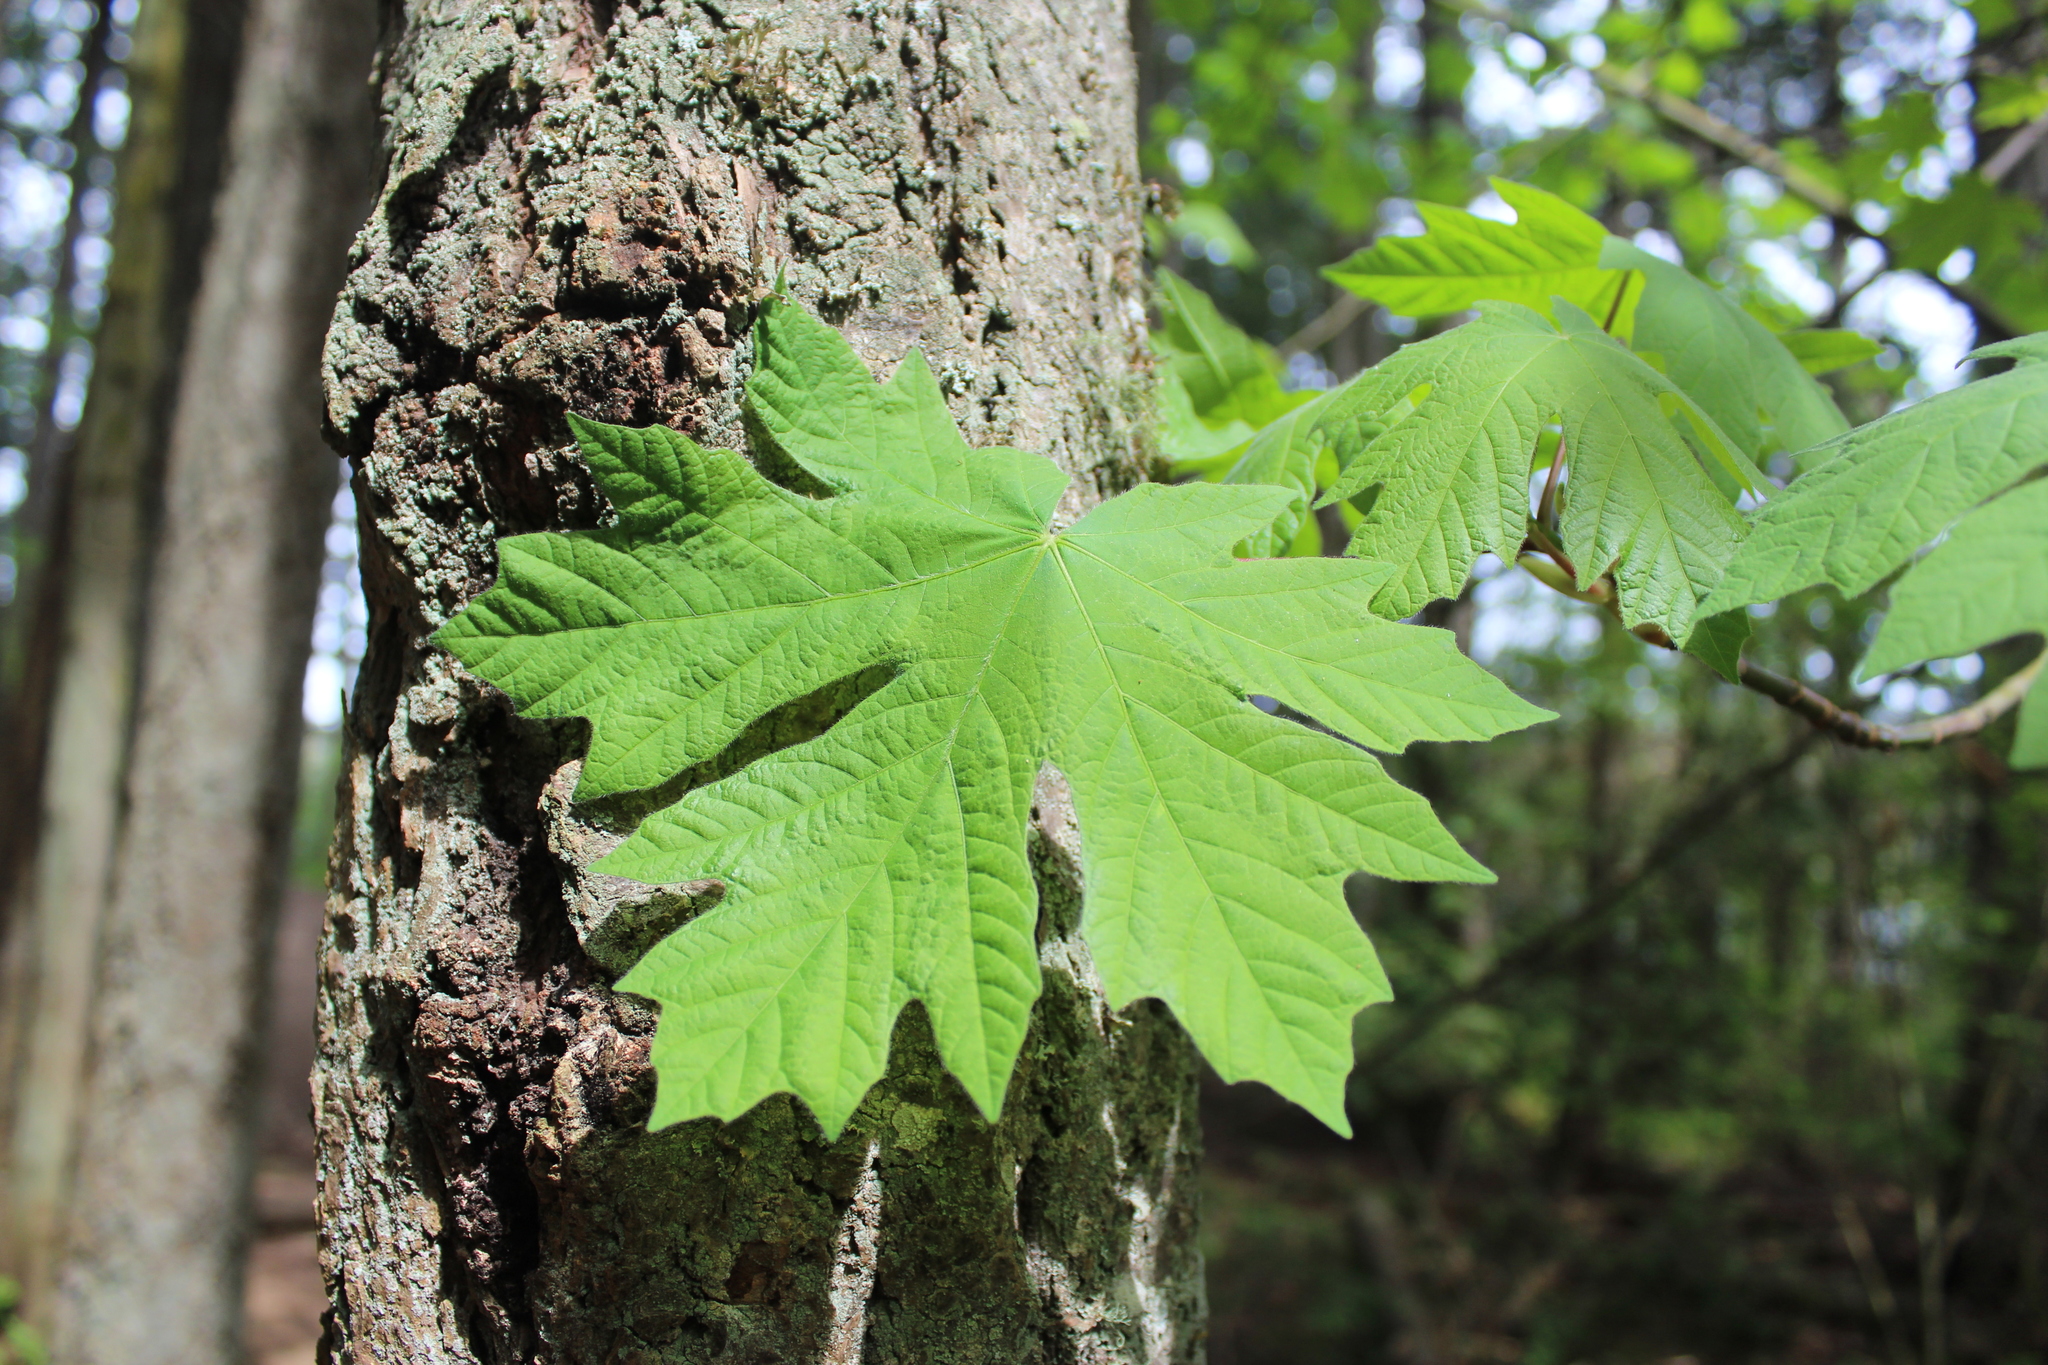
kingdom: Plantae
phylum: Tracheophyta
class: Magnoliopsida
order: Sapindales
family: Sapindaceae
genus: Acer
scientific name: Acer macrophyllum
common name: Oregon maple
